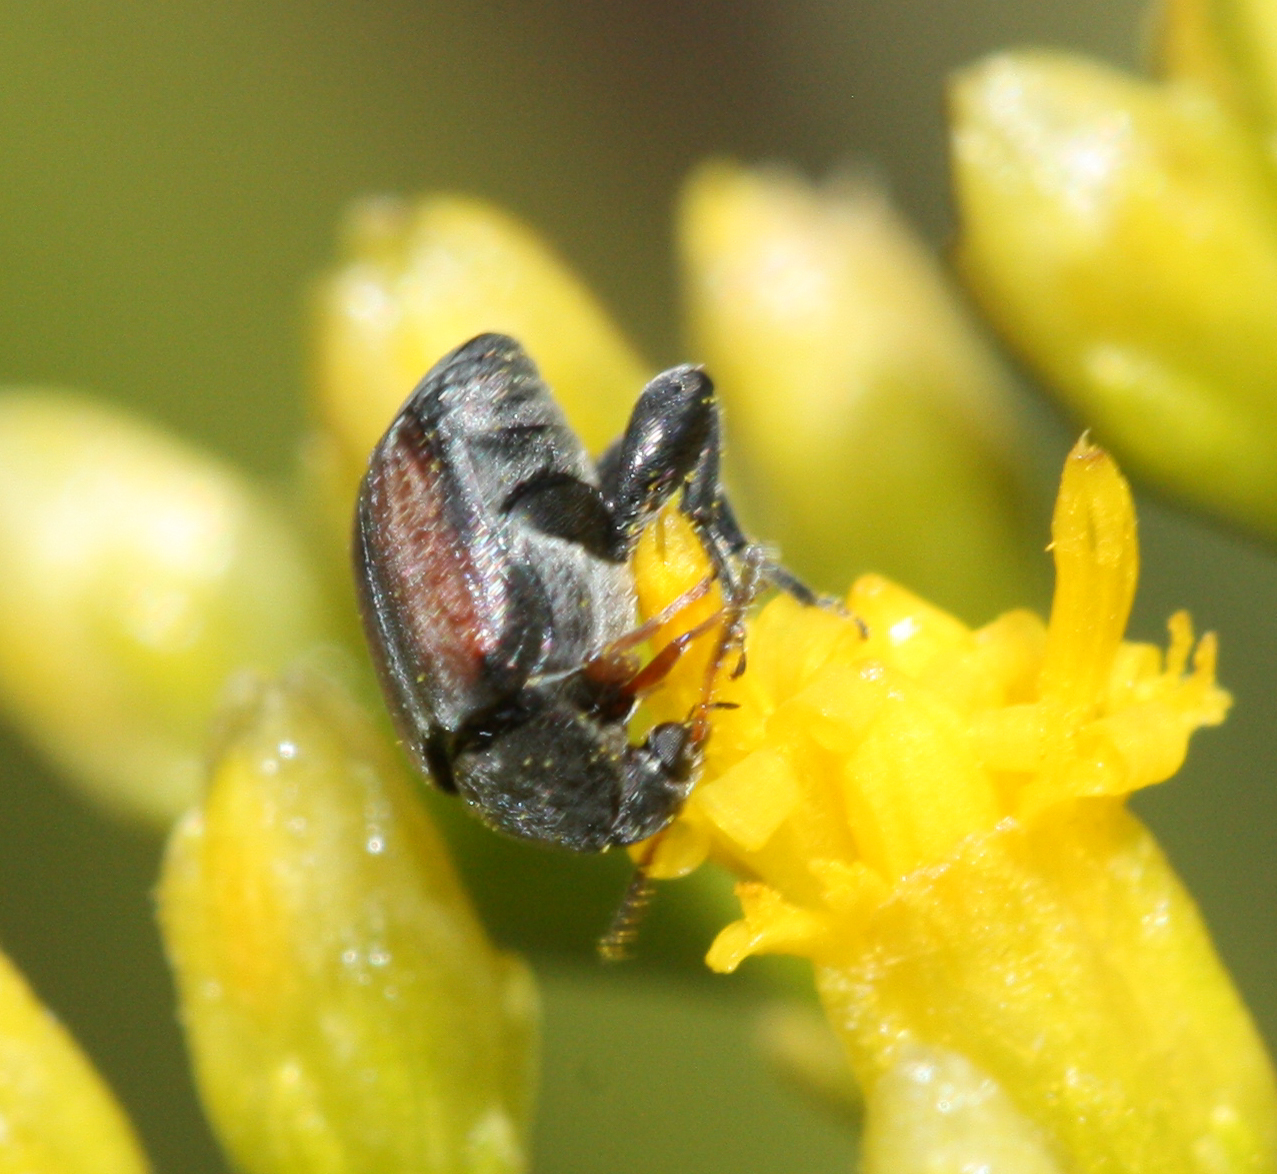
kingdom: Animalia
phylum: Arthropoda
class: Insecta
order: Coleoptera
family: Chrysomelidae
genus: Stator
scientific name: Stator limbatus
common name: Leaf beetle
